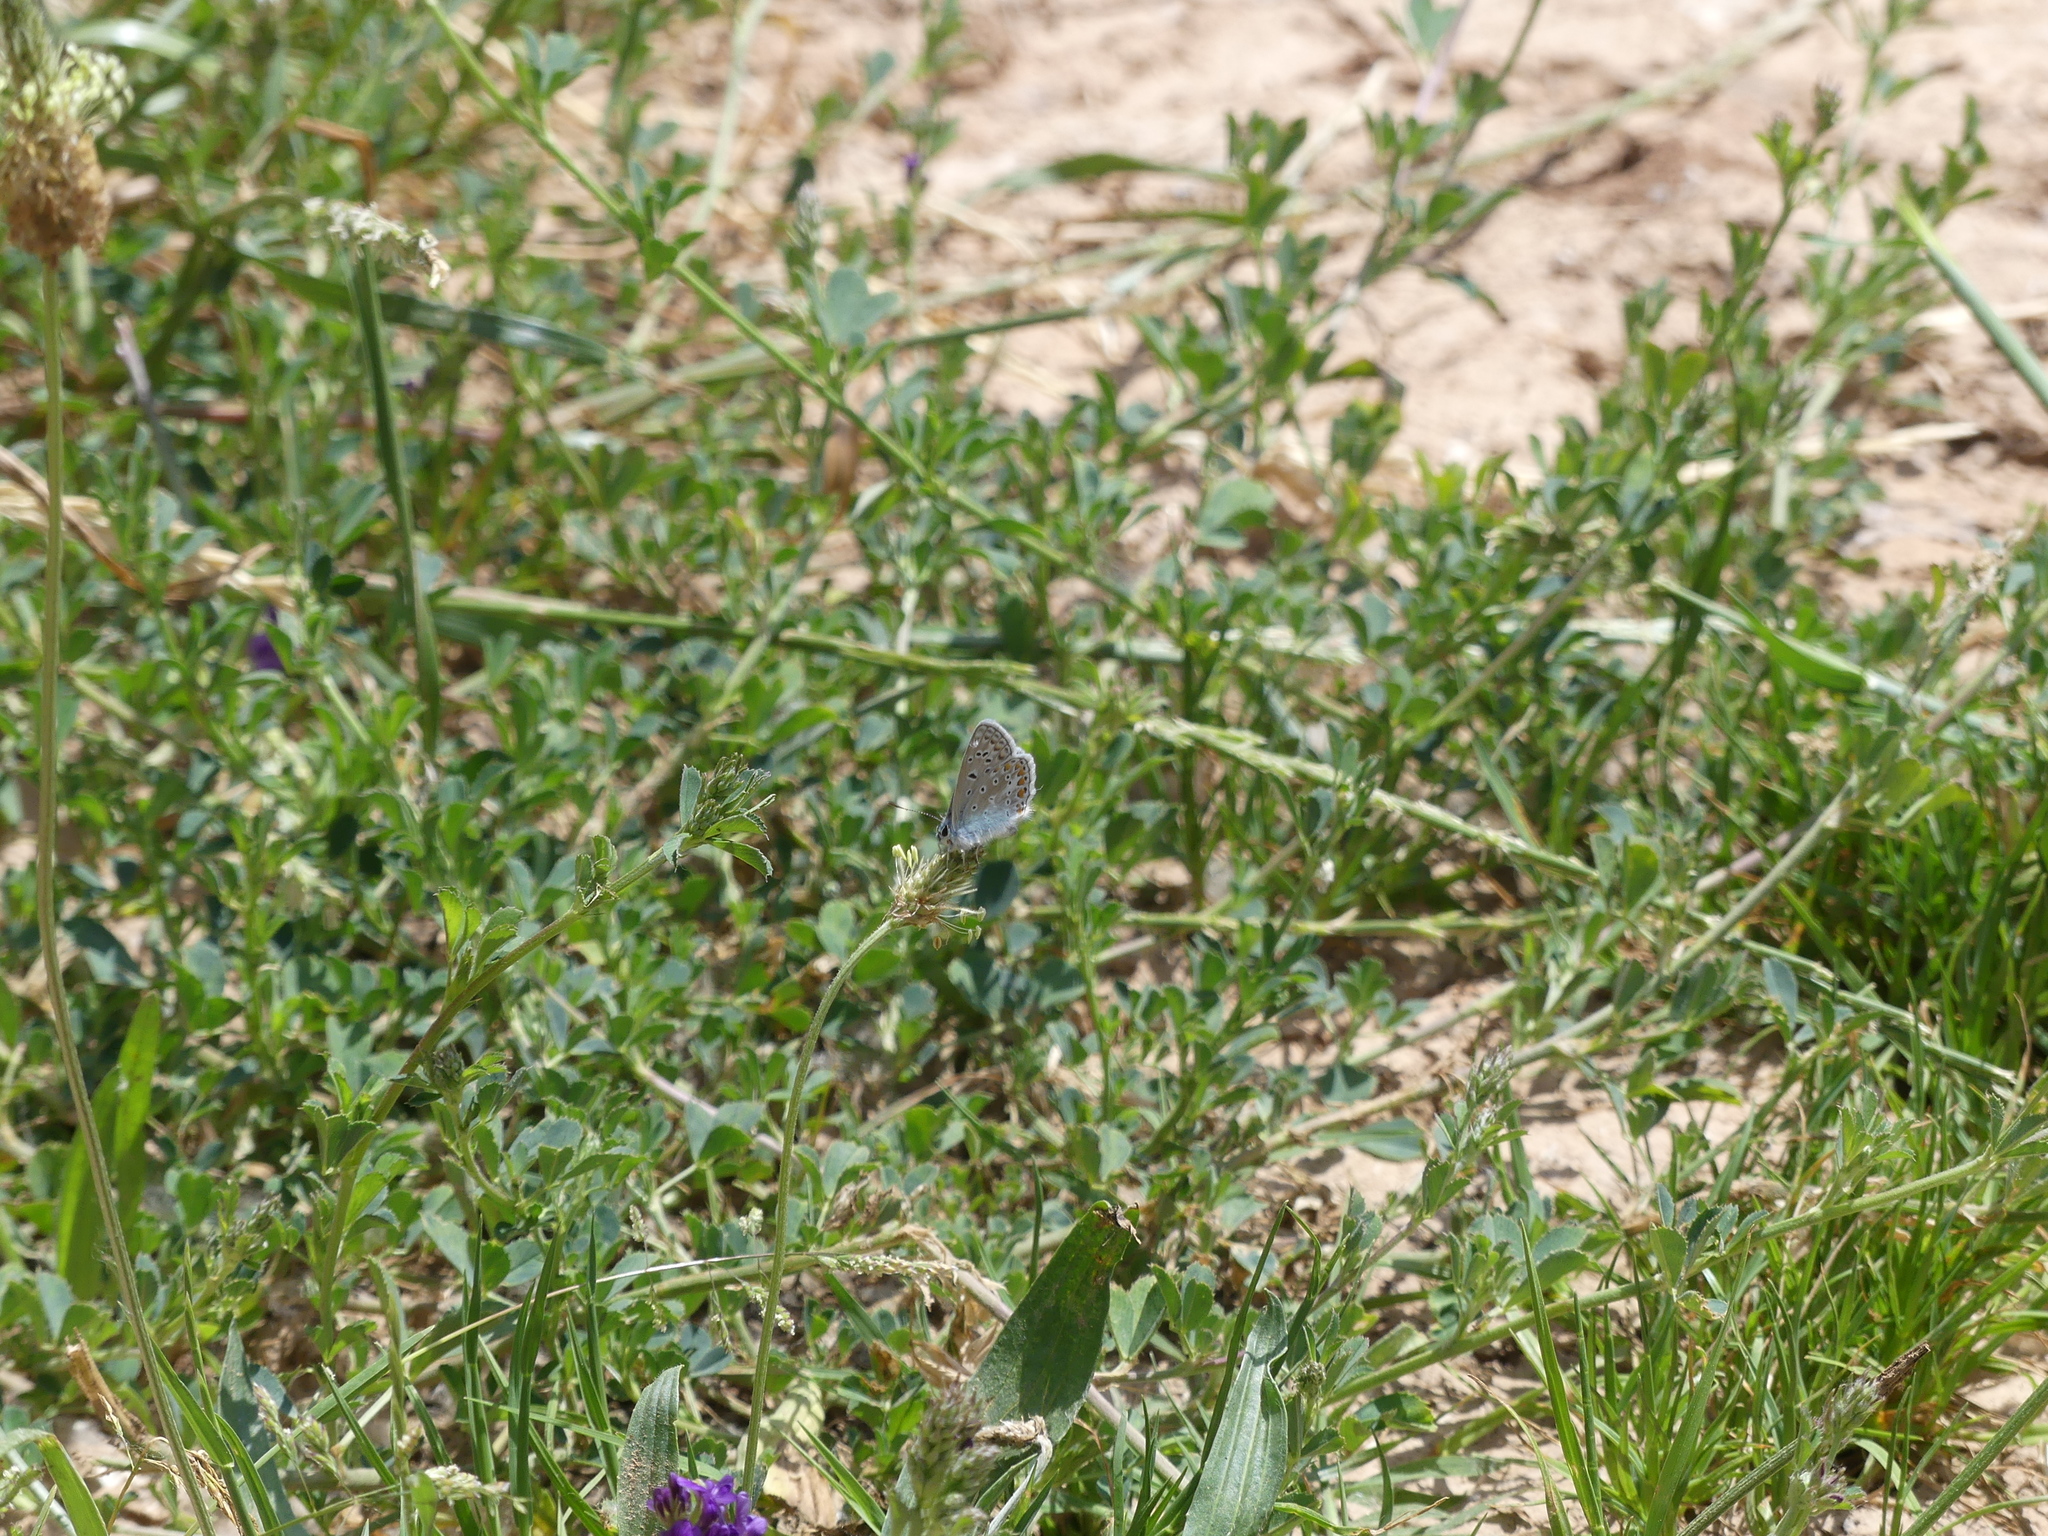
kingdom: Animalia
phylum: Arthropoda
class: Insecta
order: Lepidoptera
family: Lycaenidae
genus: Polyommatus
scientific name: Polyommatus icarus
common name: Common blue
